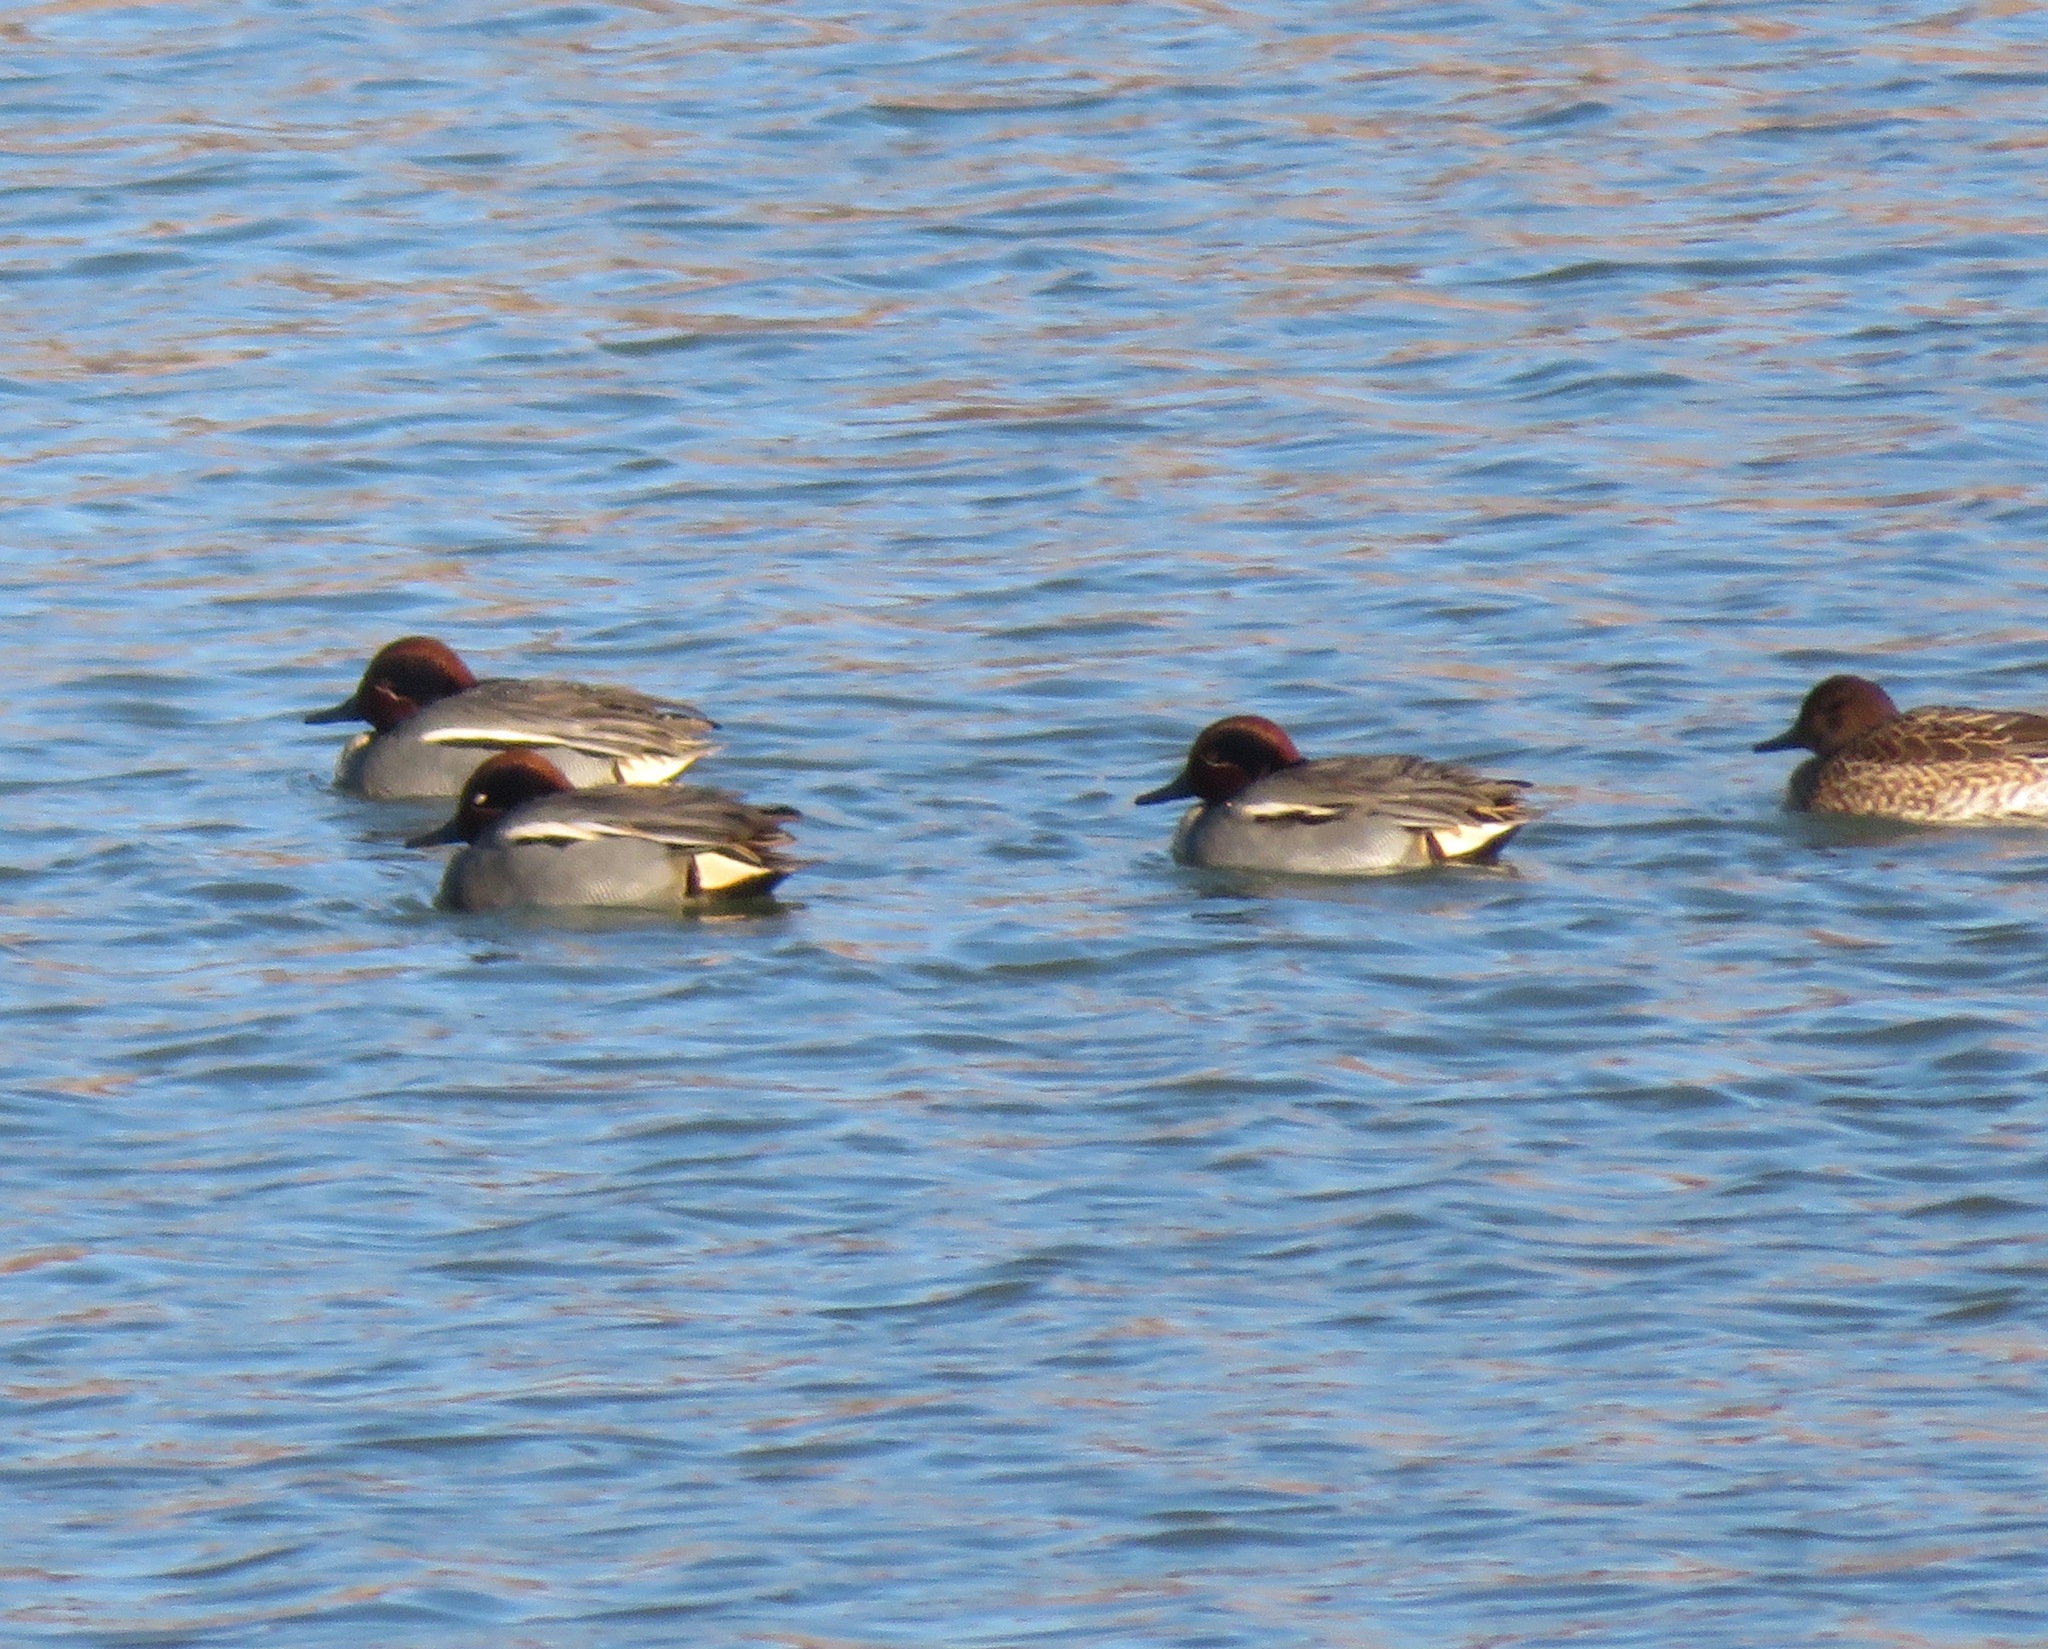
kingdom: Animalia
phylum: Chordata
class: Aves
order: Anseriformes
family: Anatidae
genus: Anas
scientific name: Anas crecca
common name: Eurasian teal
